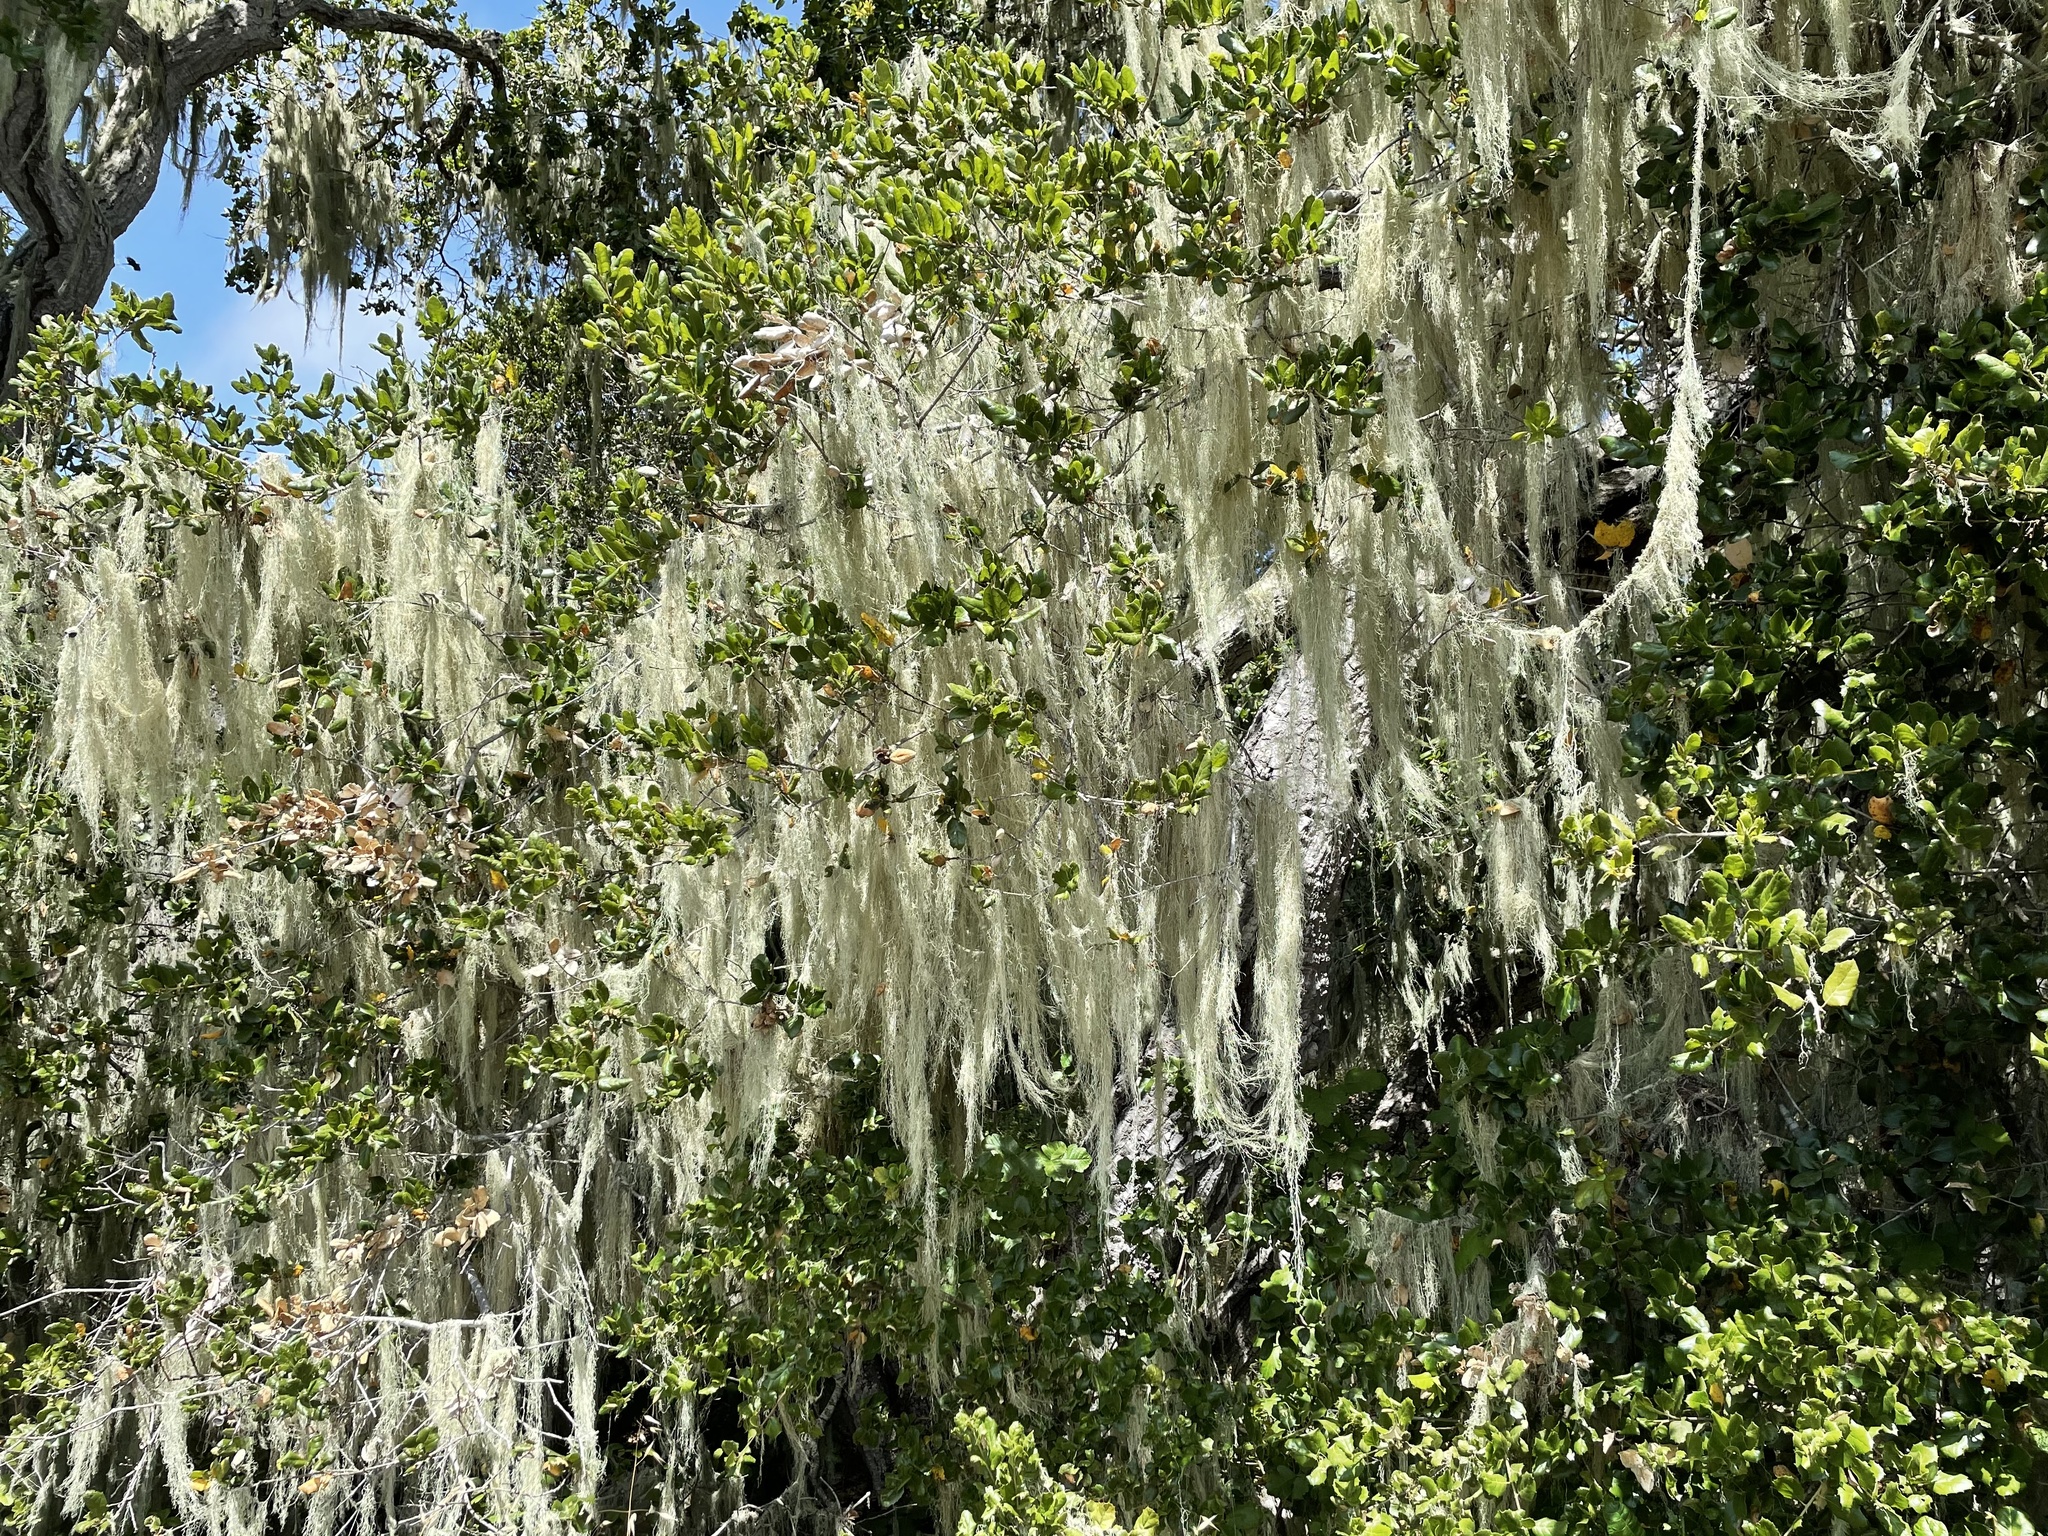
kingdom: Fungi
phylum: Ascomycota
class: Lecanoromycetes
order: Lecanorales
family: Ramalinaceae
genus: Ramalina
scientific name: Ramalina menziesii
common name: Lace lichen
